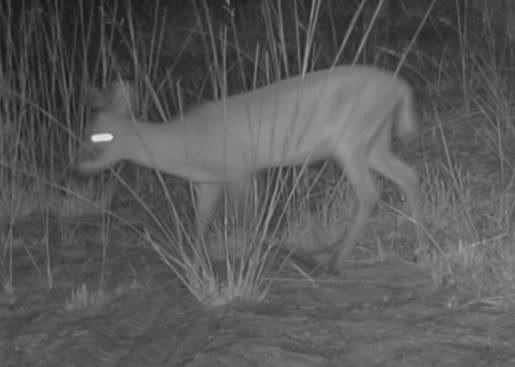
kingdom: Animalia
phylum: Chordata
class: Mammalia
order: Artiodactyla
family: Bovidae
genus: Sylvicapra
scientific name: Sylvicapra grimmia
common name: Bush duiker
